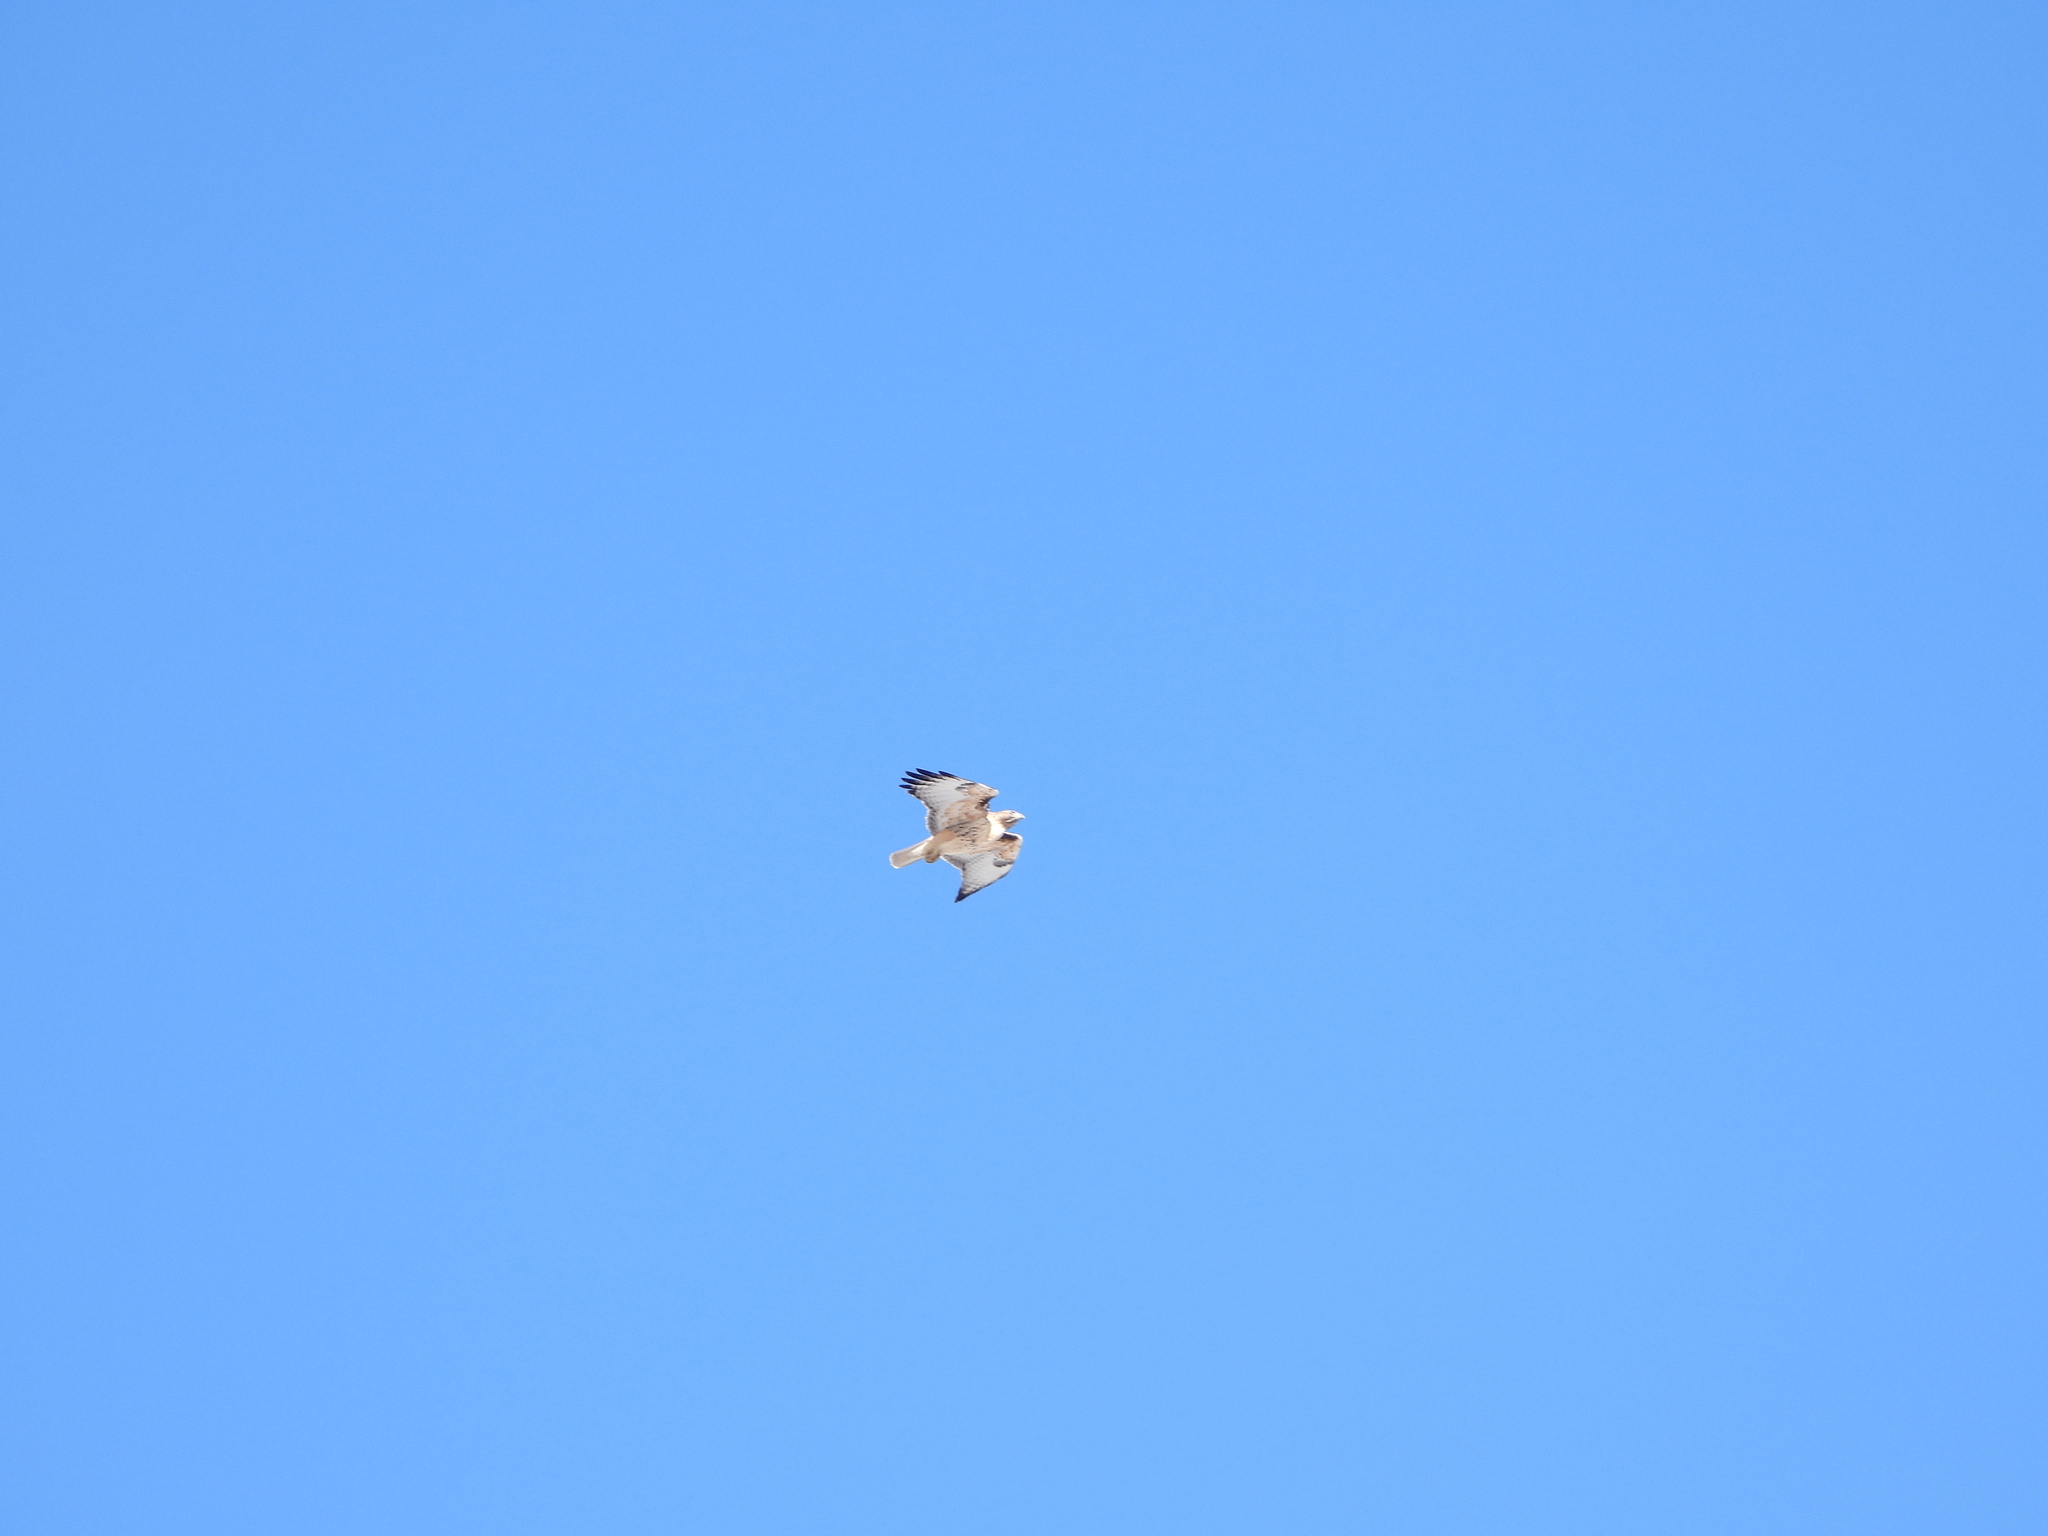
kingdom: Animalia
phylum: Chordata
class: Aves
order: Accipitriformes
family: Accipitridae
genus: Buteo
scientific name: Buteo jamaicensis
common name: Red-tailed hawk
